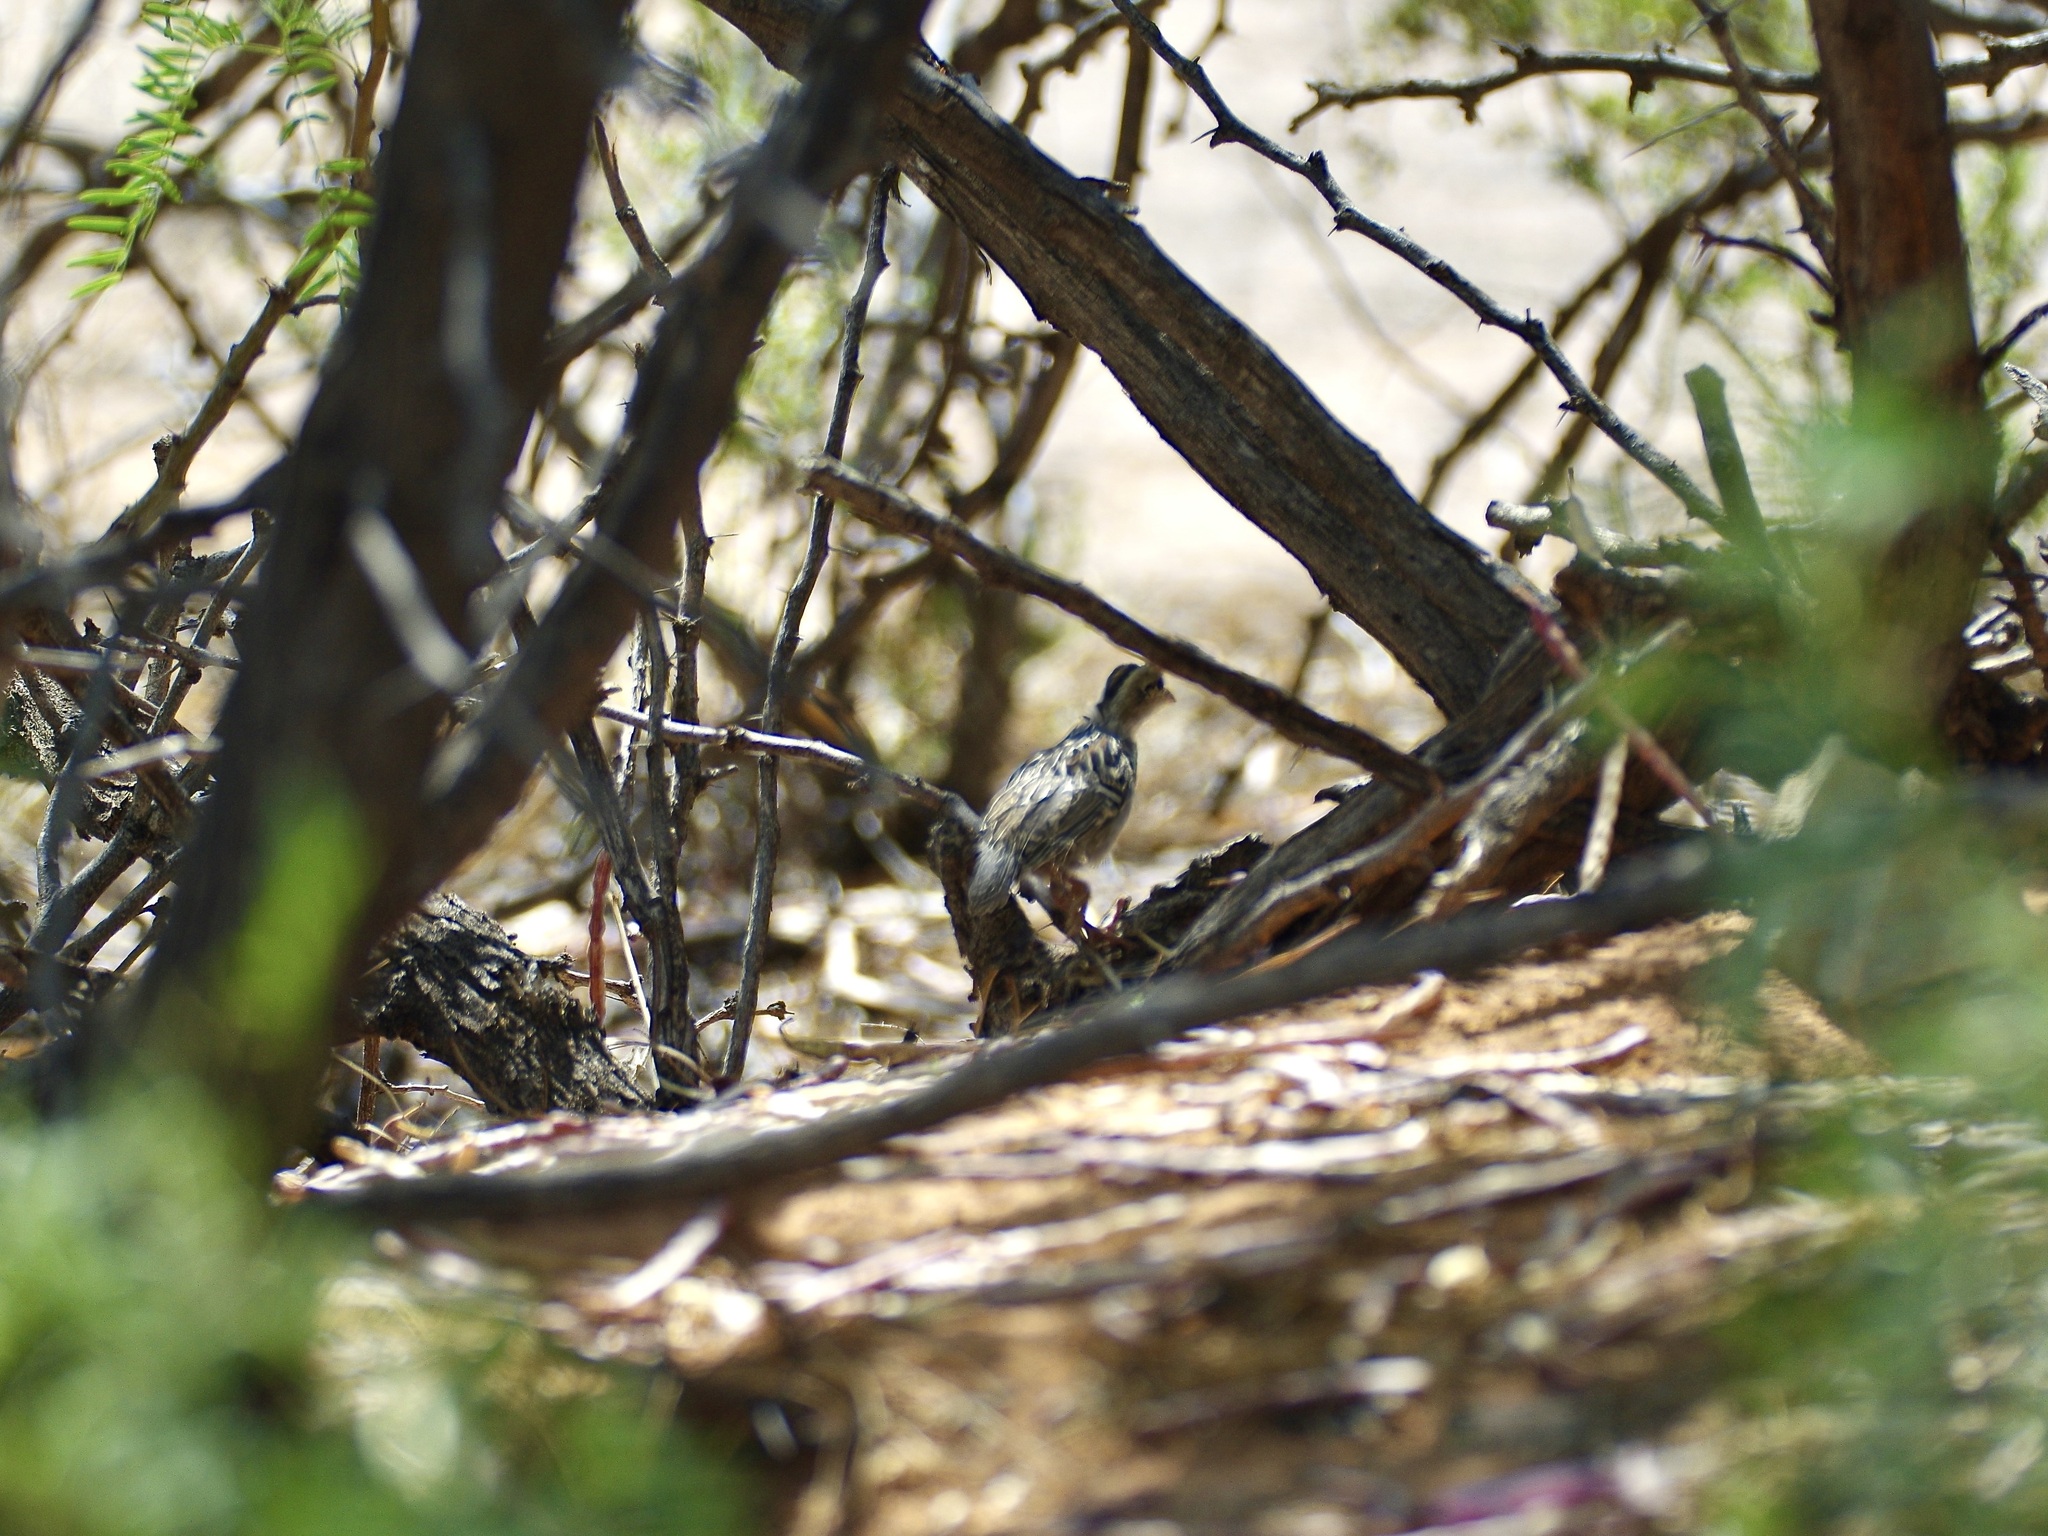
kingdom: Animalia
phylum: Chordata
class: Aves
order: Galliformes
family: Odontophoridae
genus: Callipepla
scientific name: Callipepla gambelii
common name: Gambel's quail
